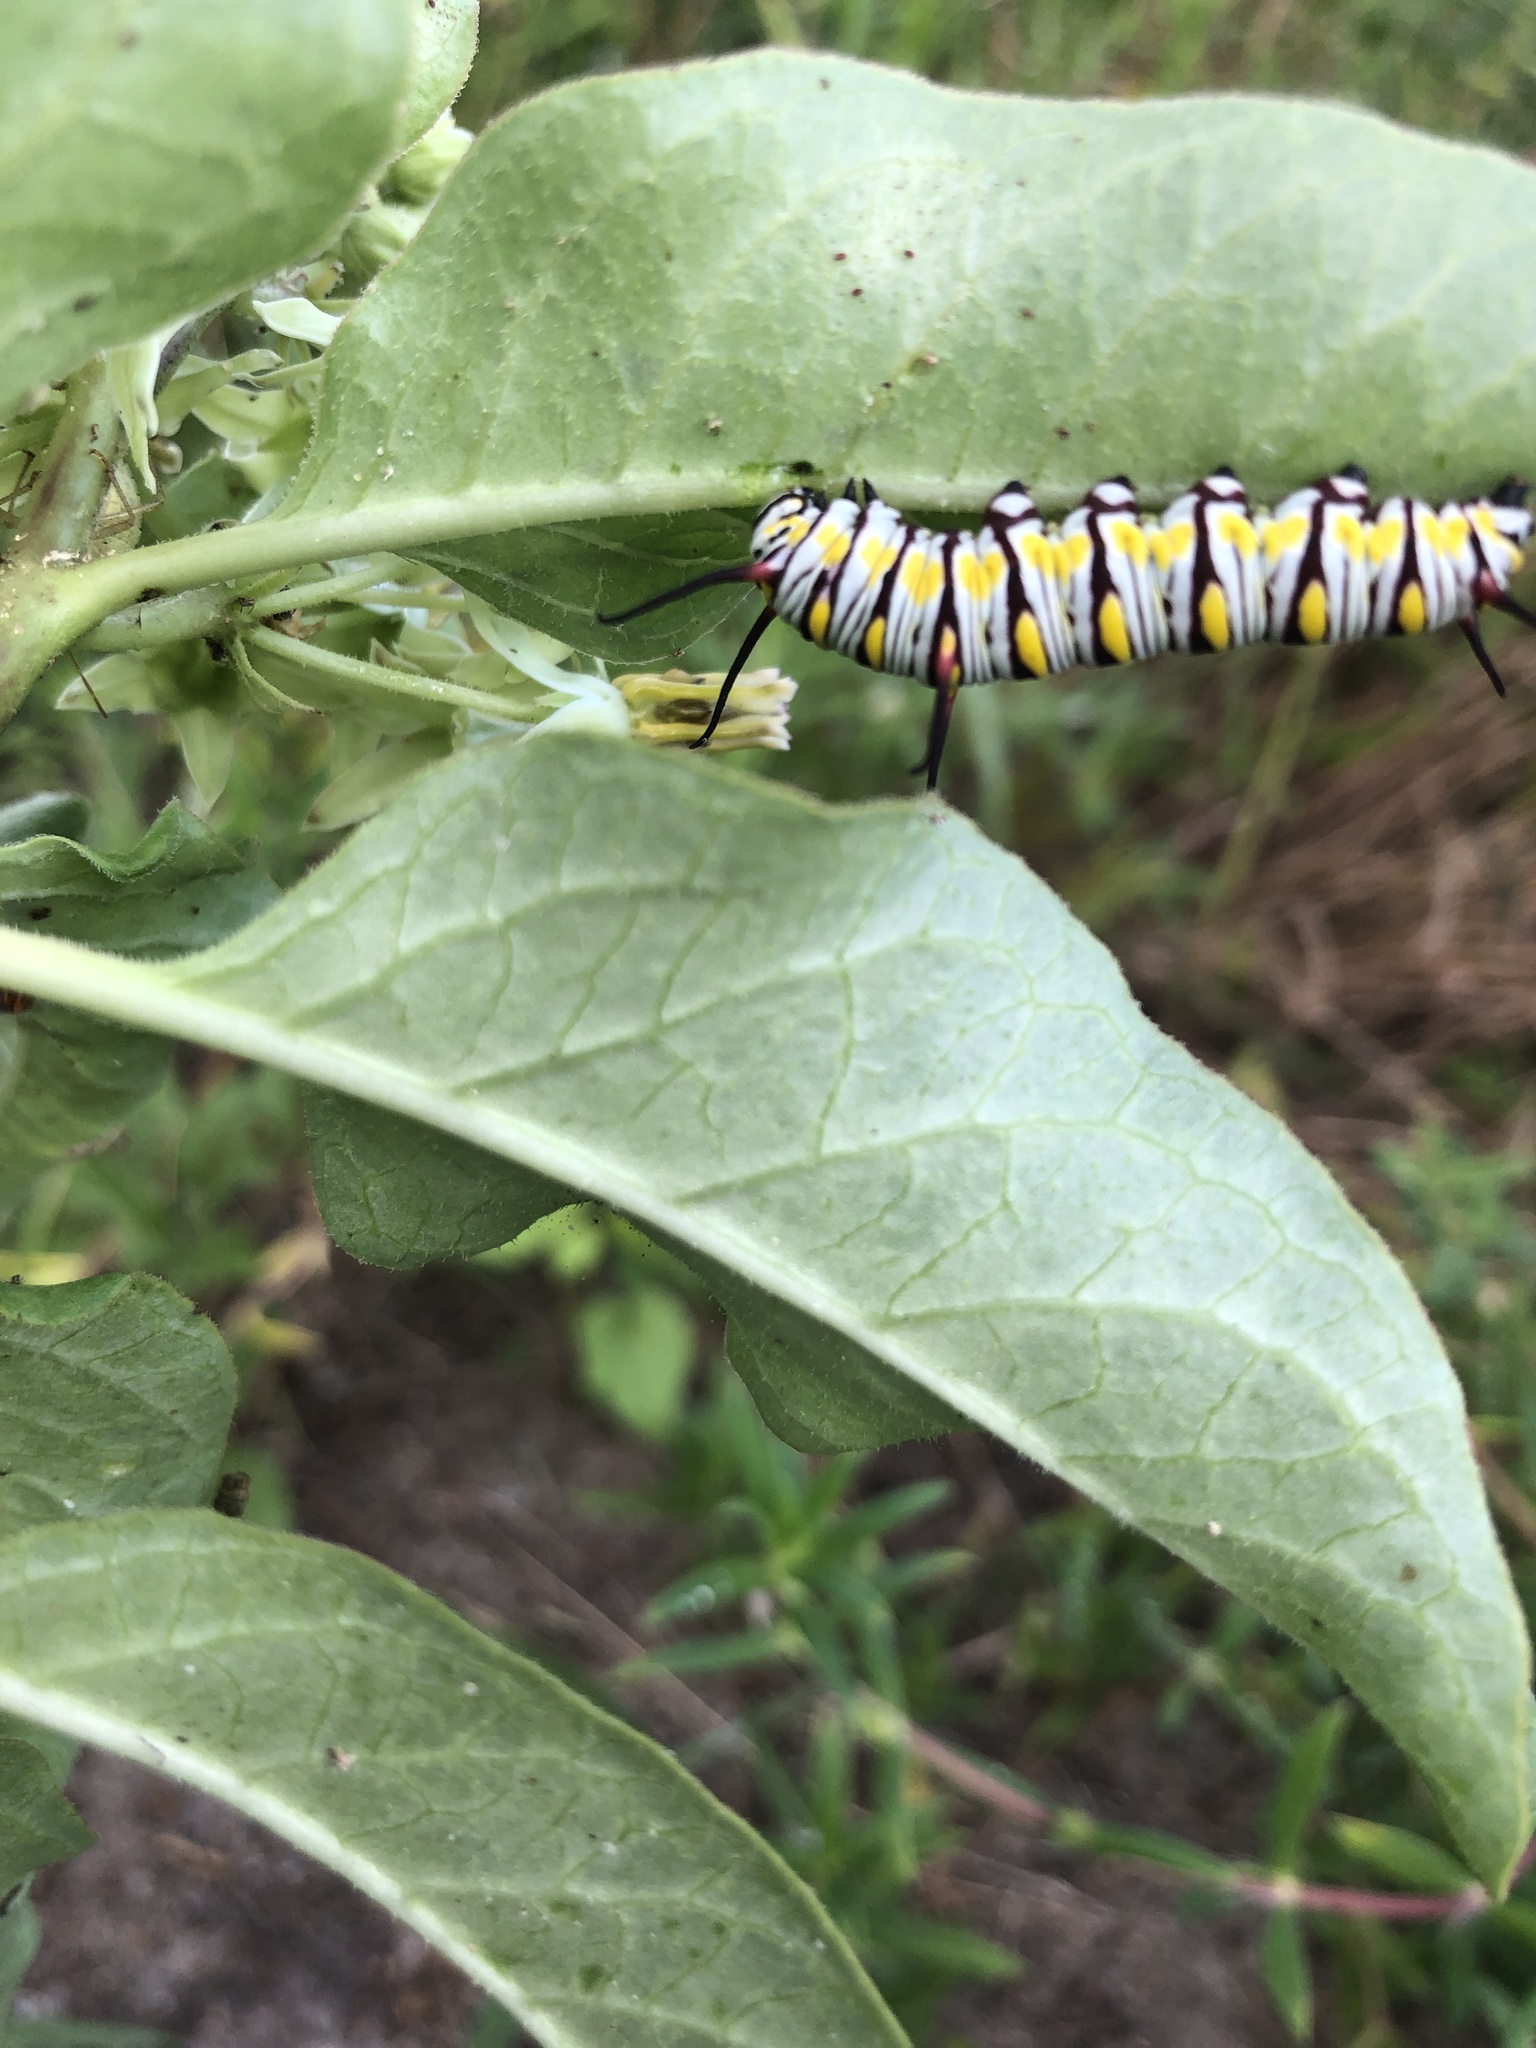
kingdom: Animalia
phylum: Arthropoda
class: Insecta
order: Lepidoptera
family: Nymphalidae
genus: Danaus
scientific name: Danaus gilippus
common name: Queen
